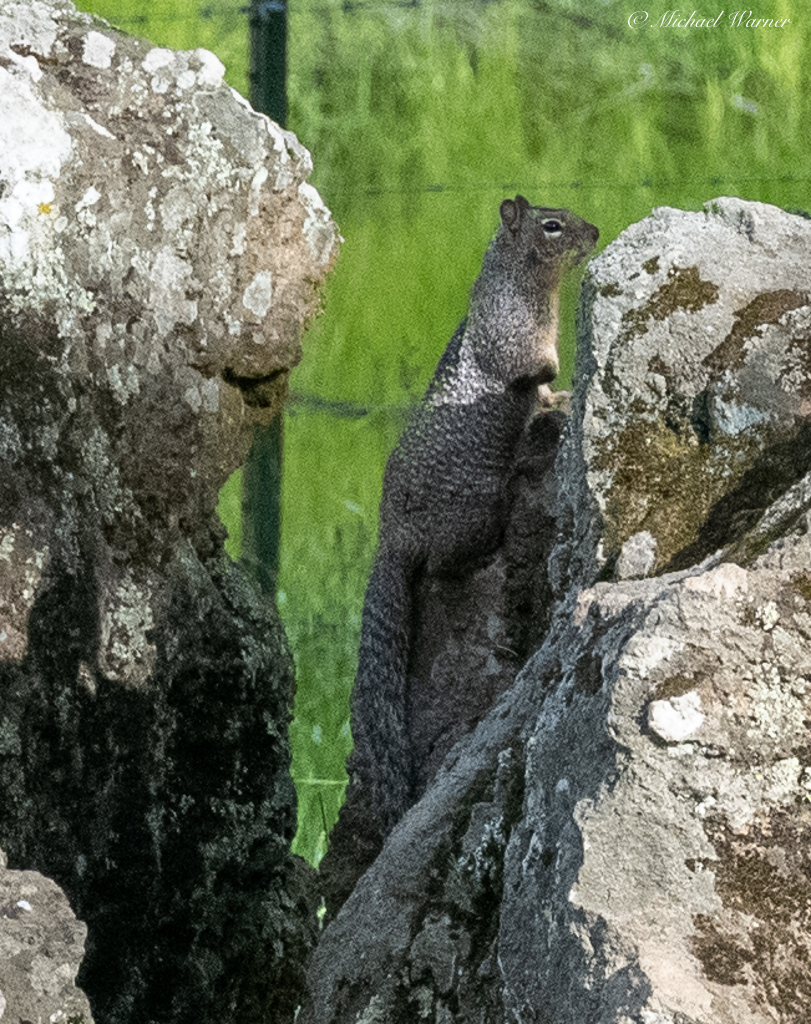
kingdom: Animalia
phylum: Chordata
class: Mammalia
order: Rodentia
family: Sciuridae
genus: Otospermophilus
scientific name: Otospermophilus beecheyi
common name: California ground squirrel
